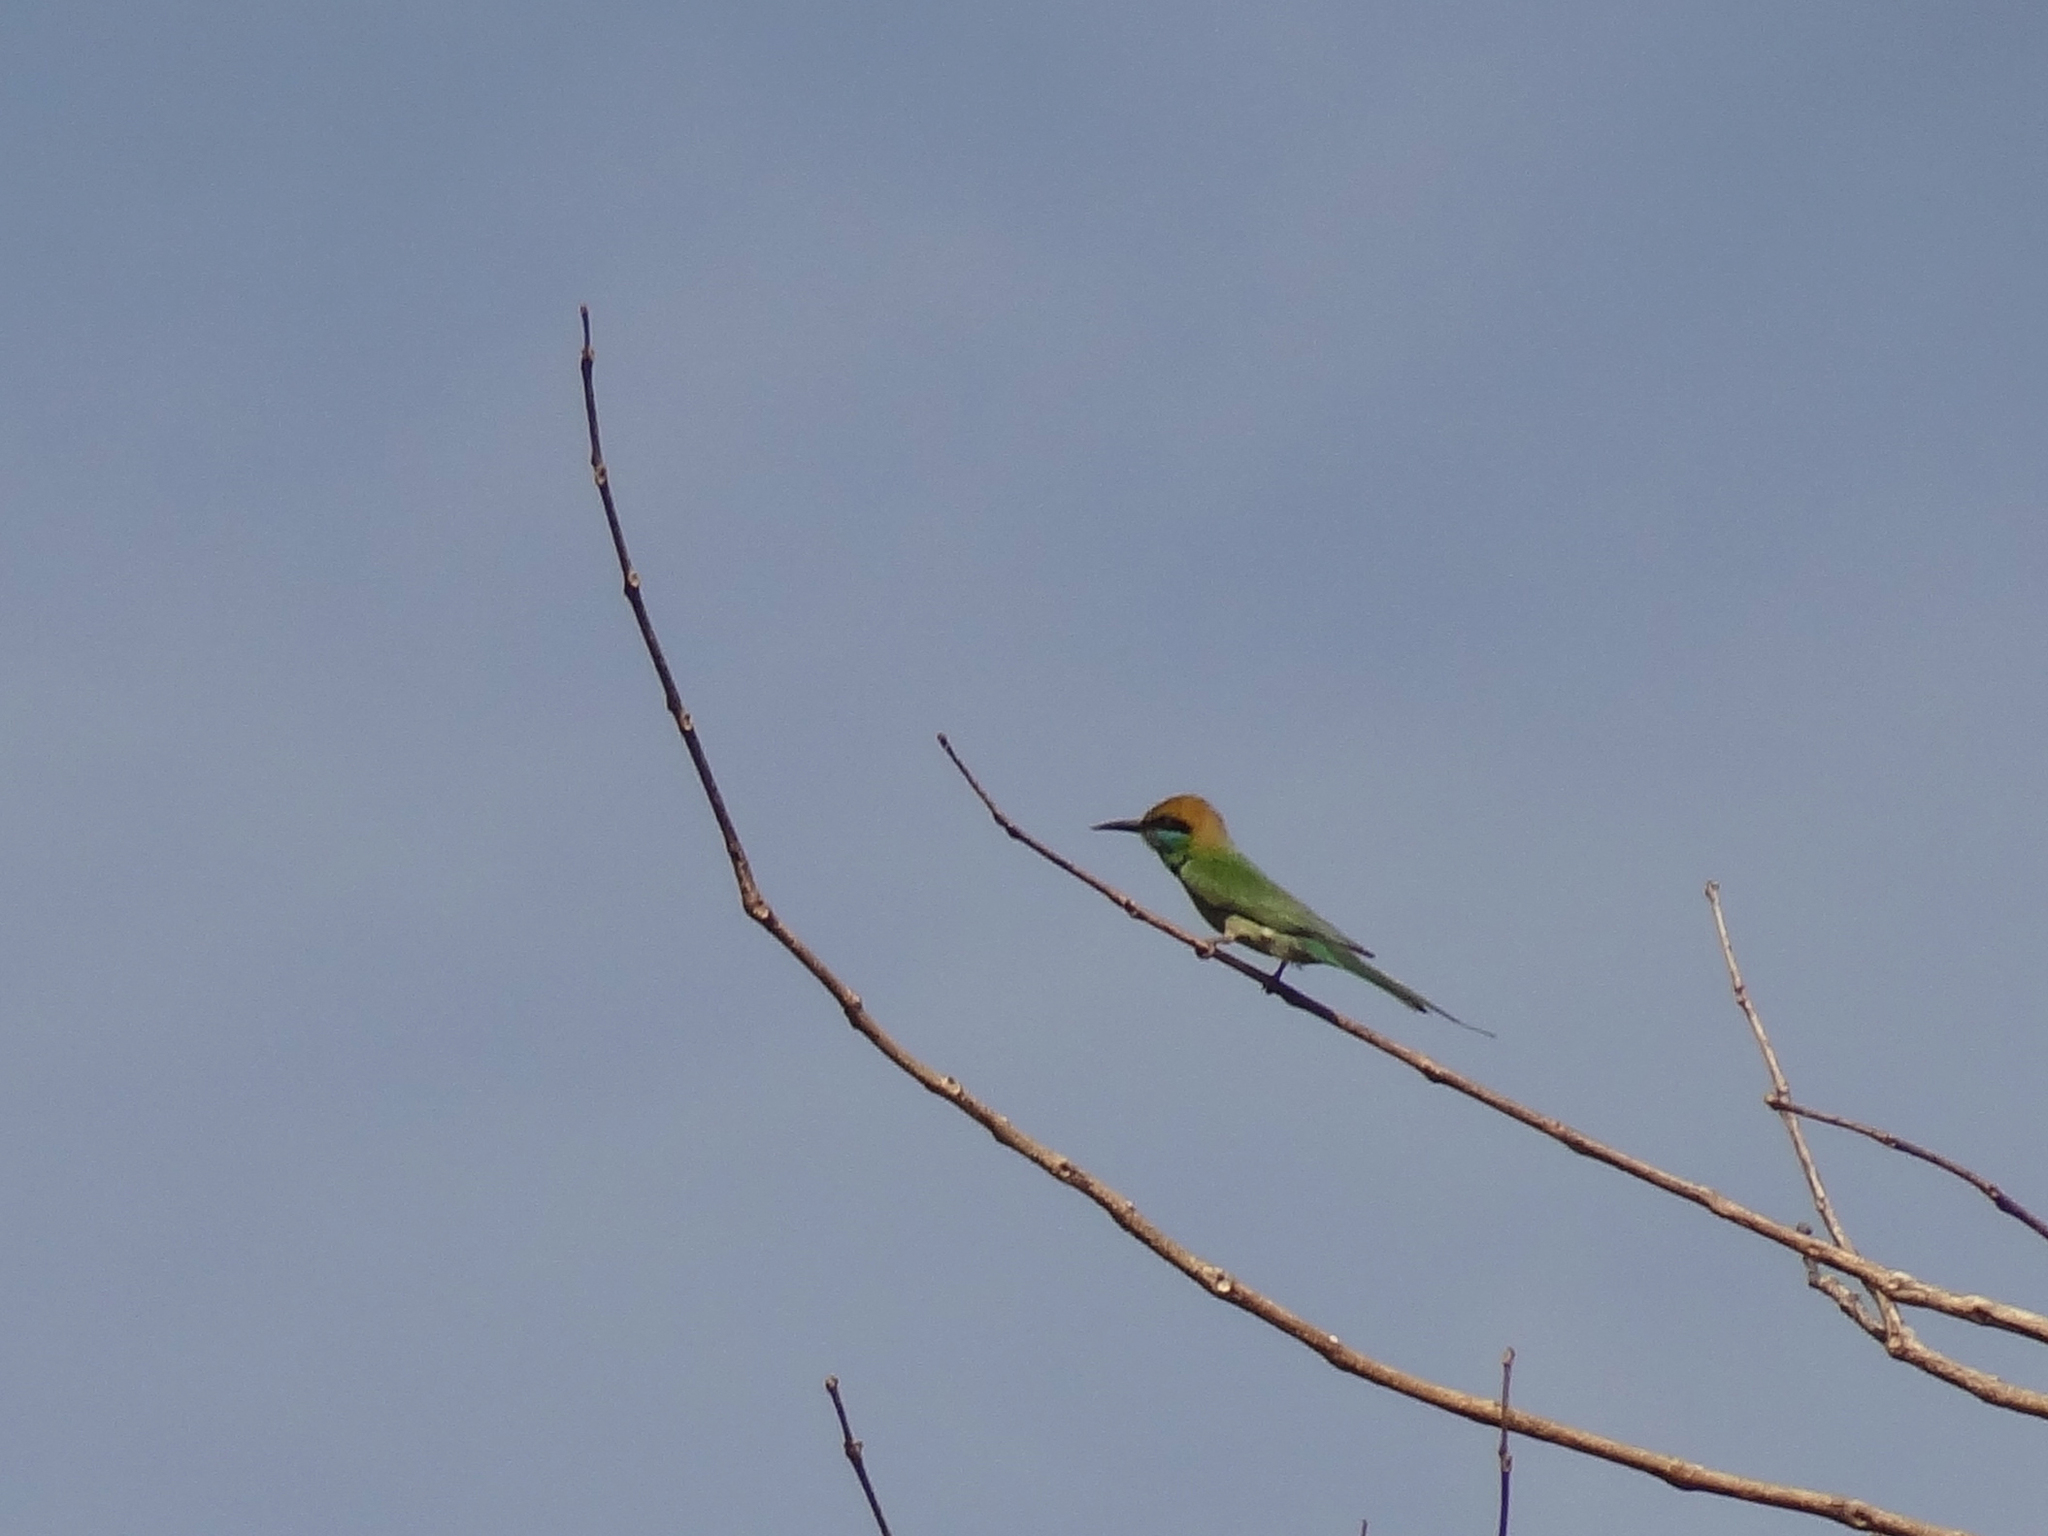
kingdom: Animalia
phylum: Chordata
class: Aves
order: Coraciiformes
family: Meropidae
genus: Merops
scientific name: Merops orientalis
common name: Green bee-eater
